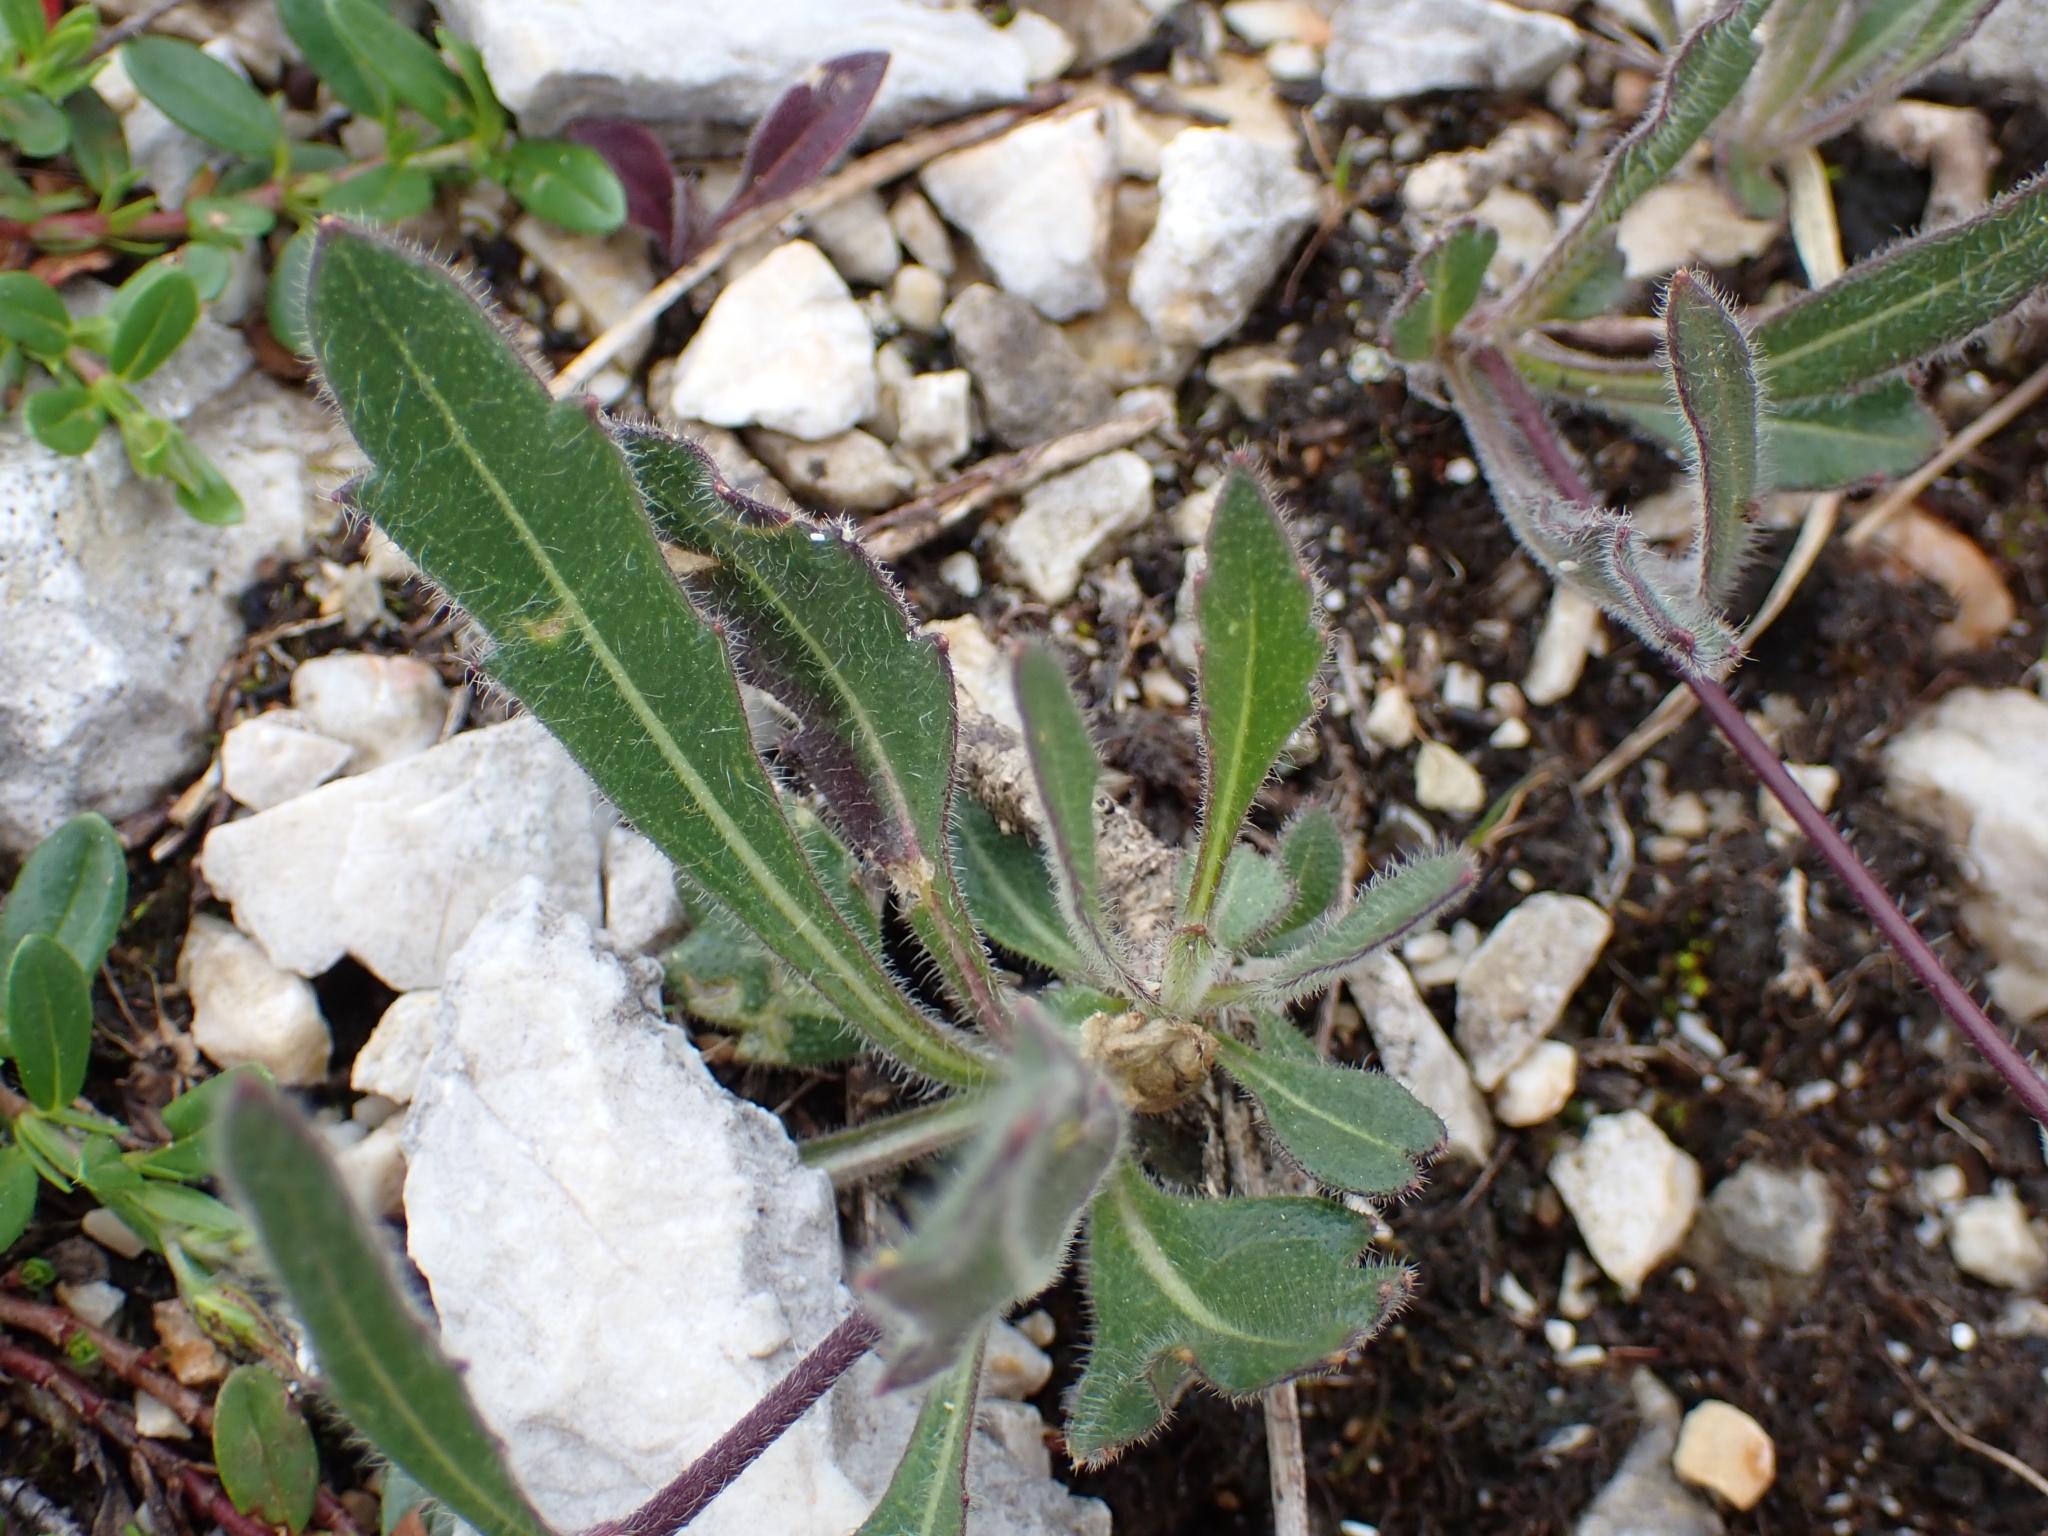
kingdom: Plantae
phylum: Tracheophyta
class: Magnoliopsida
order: Brassicales
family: Brassicaceae
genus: Biscutella
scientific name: Biscutella laevigata
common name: Buckler mustard
